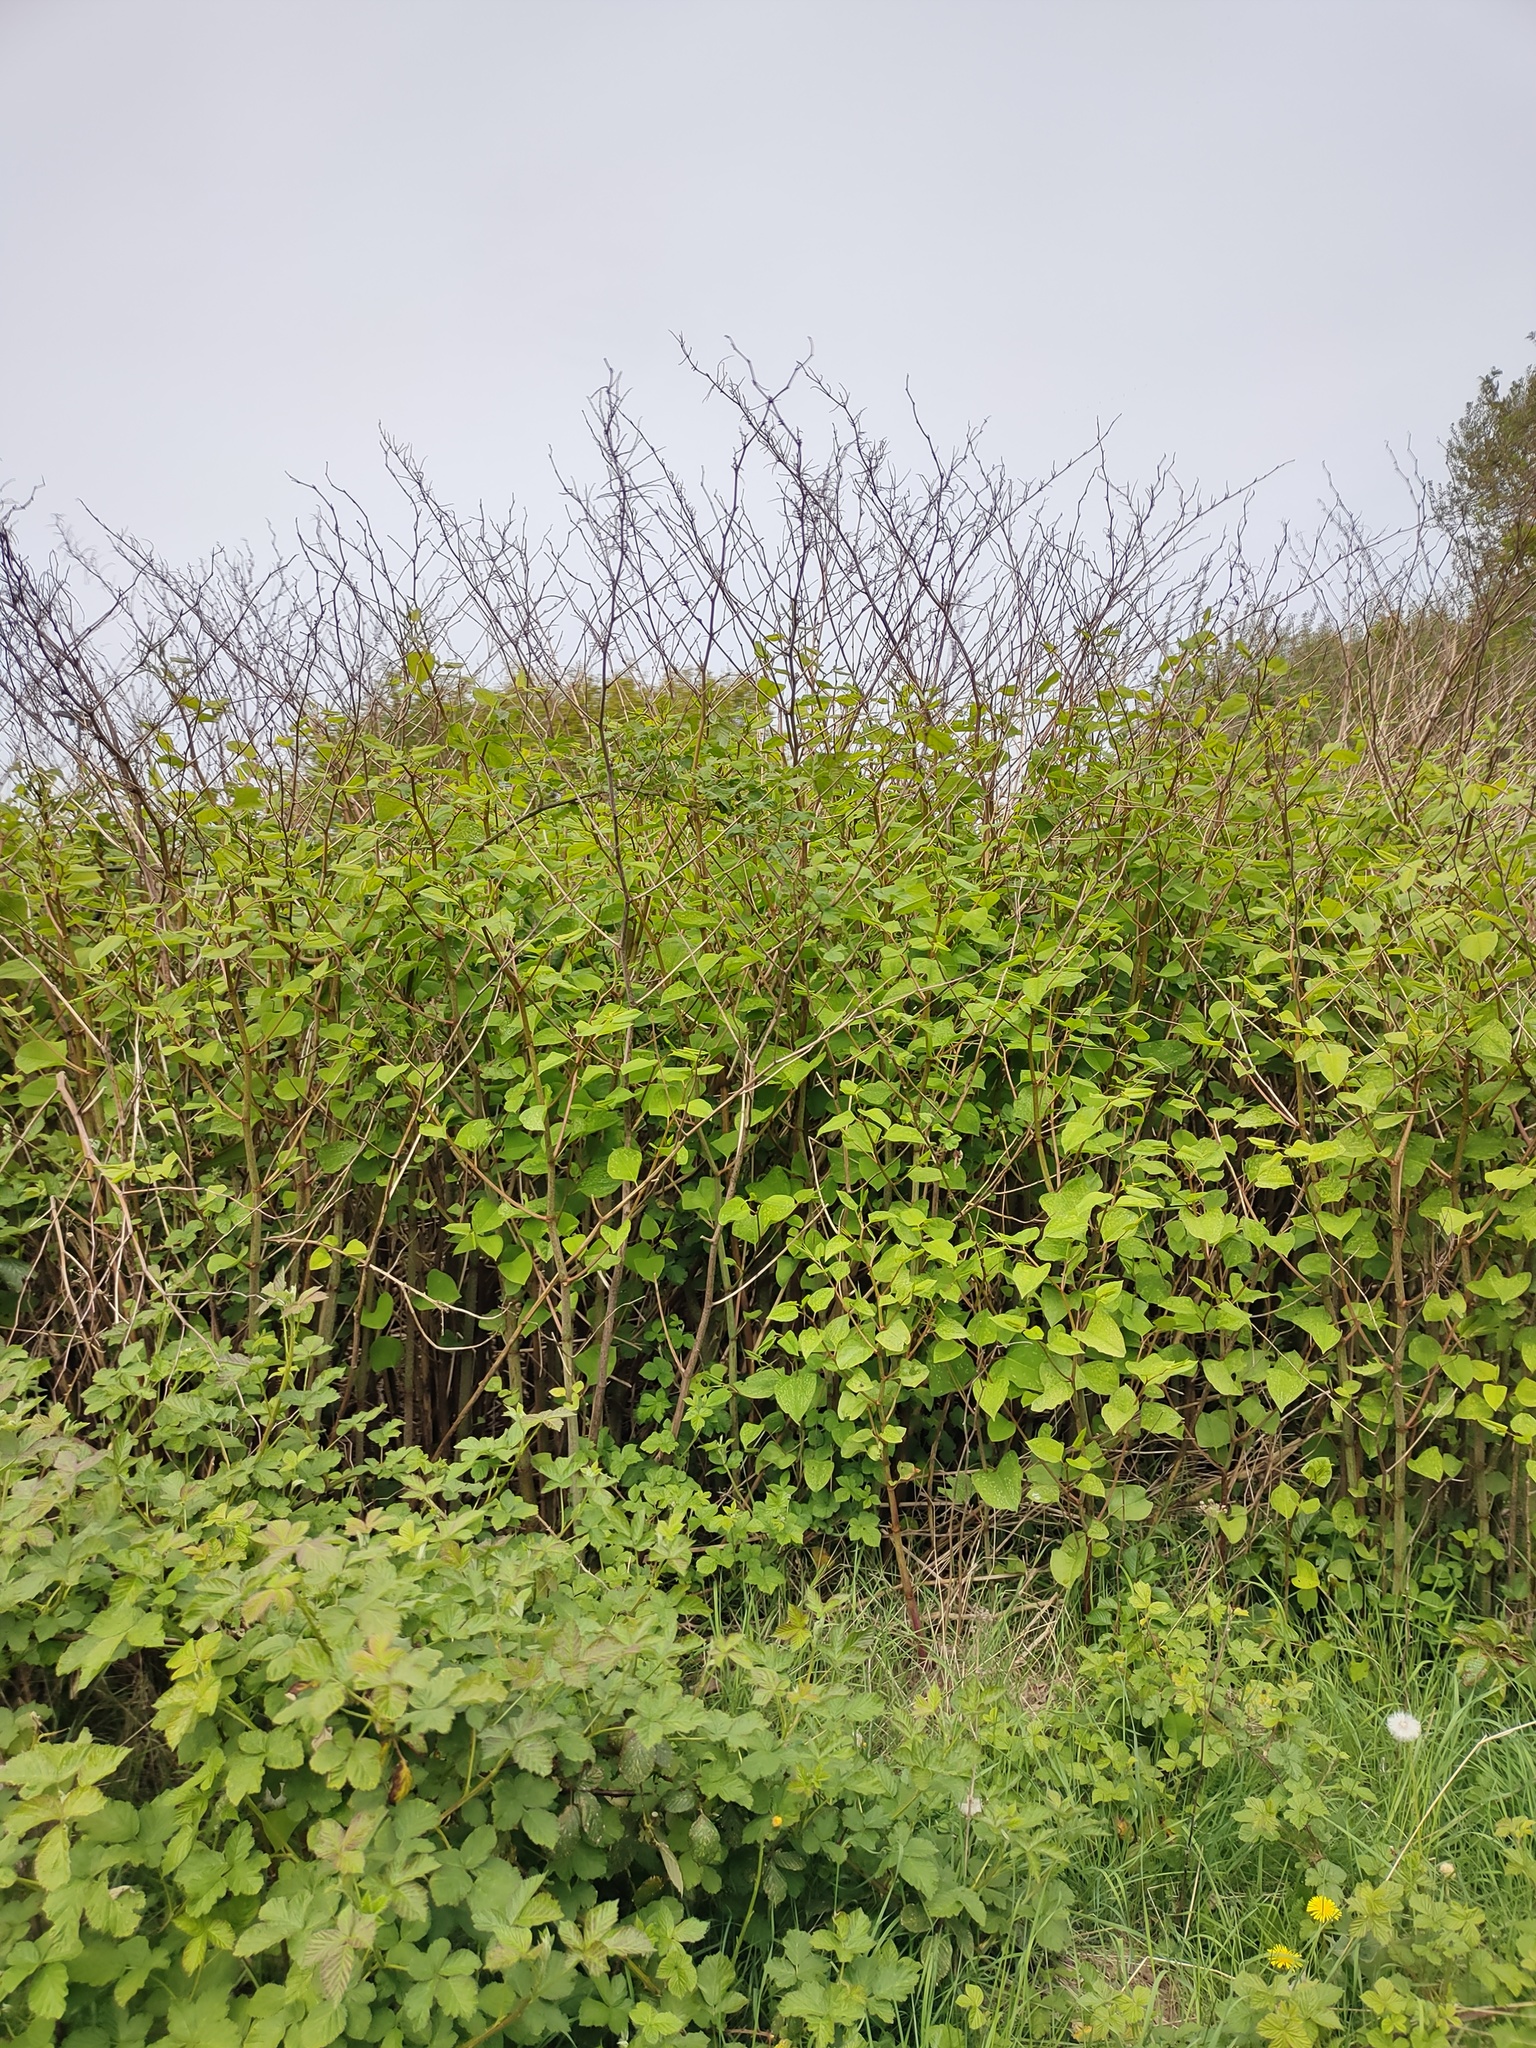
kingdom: Plantae
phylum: Tracheophyta
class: Magnoliopsida
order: Caryophyllales
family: Polygonaceae
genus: Reynoutria
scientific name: Reynoutria japonica
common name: Japanese knotweed
